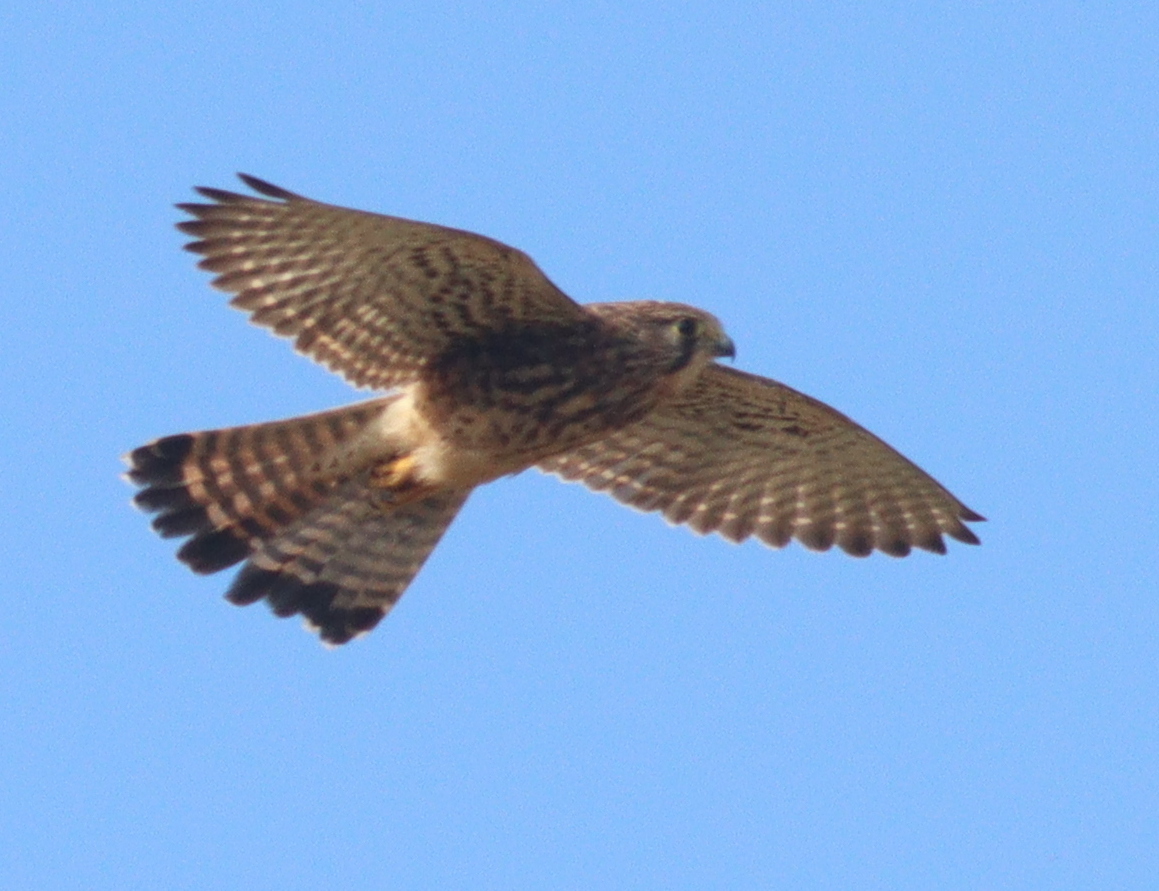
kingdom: Animalia
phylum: Chordata
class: Aves
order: Falconiformes
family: Falconidae
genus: Falco
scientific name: Falco tinnunculus
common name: Common kestrel
